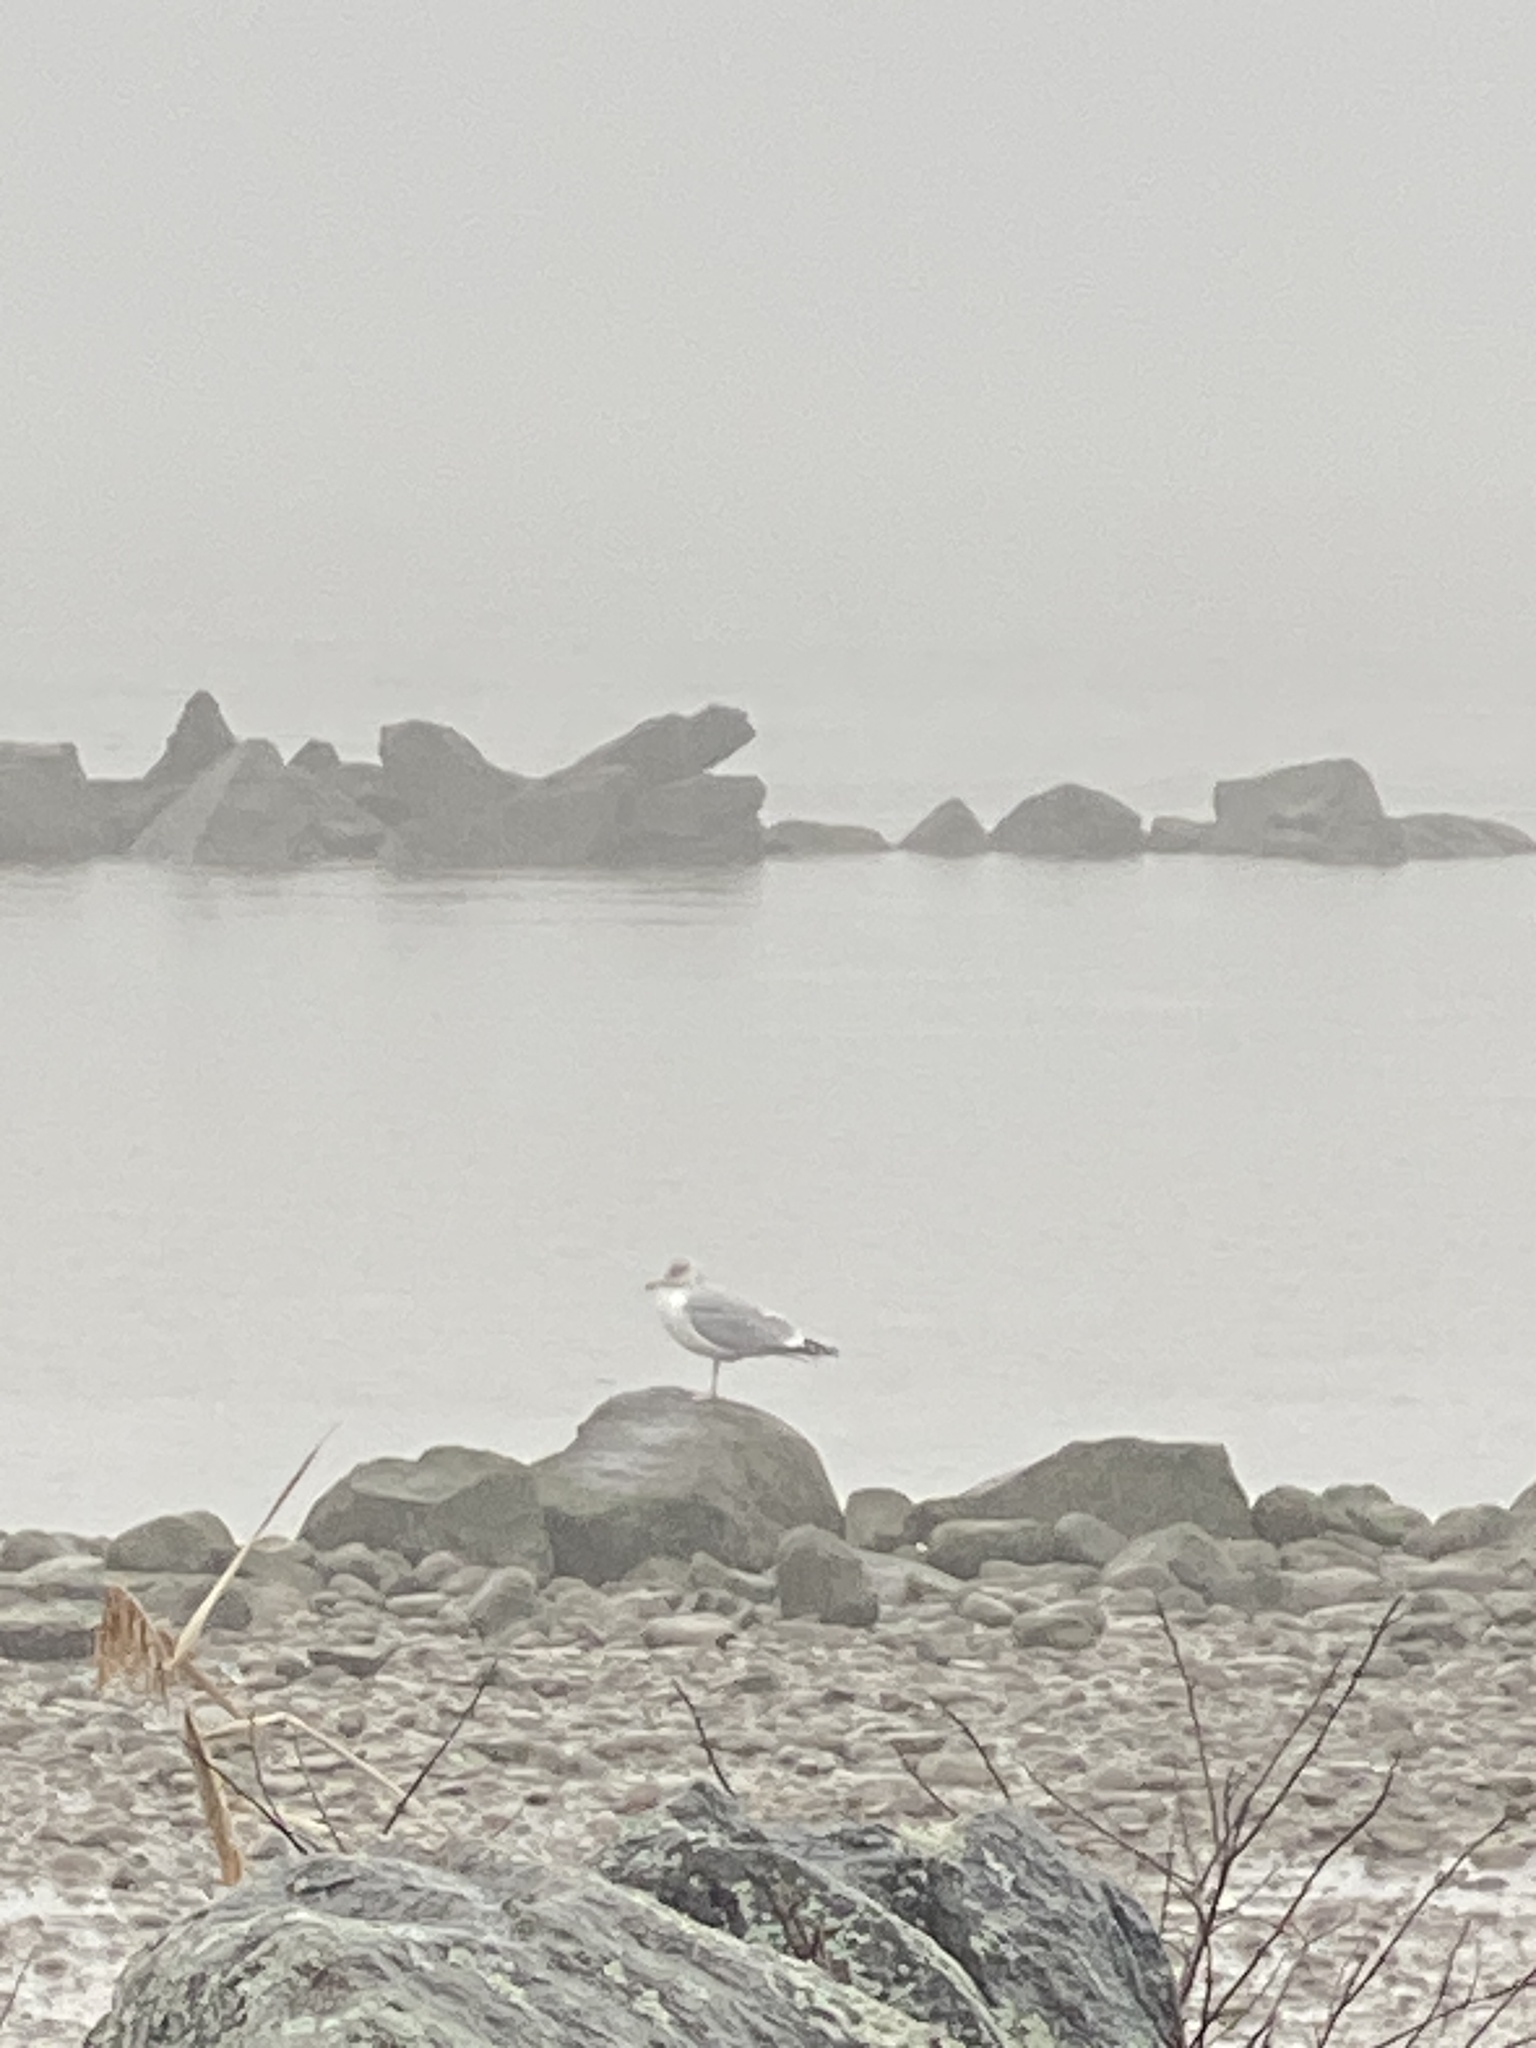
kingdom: Animalia
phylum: Chordata
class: Aves
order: Charadriiformes
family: Laridae
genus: Larus
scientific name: Larus argentatus
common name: Herring gull
